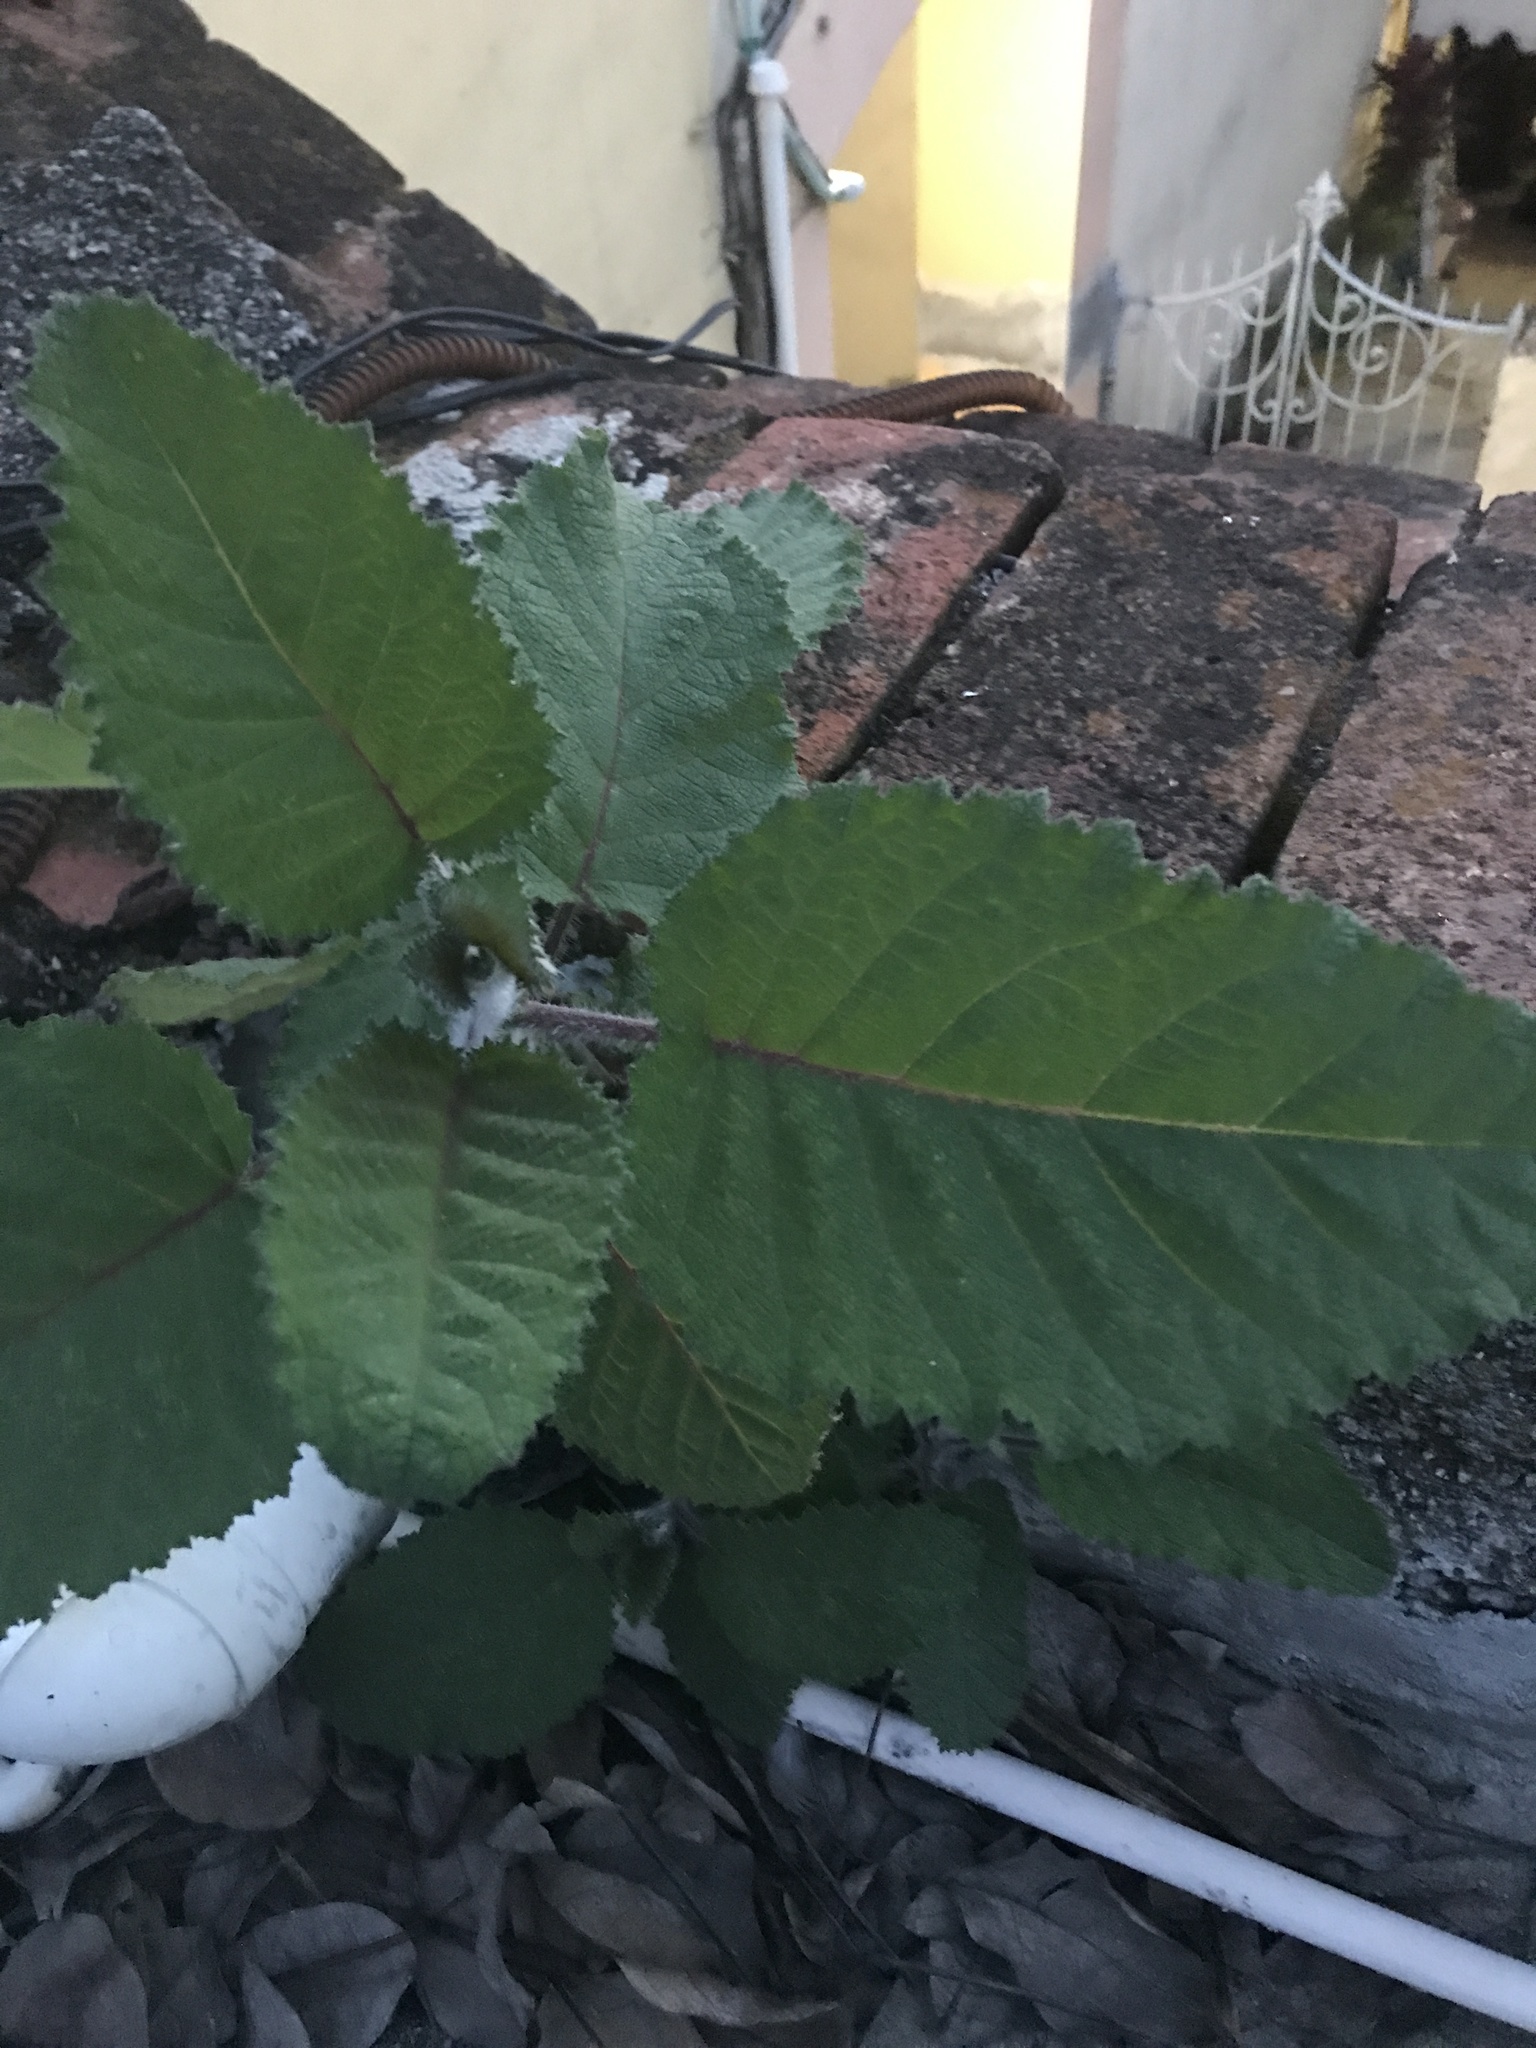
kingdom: Plantae
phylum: Tracheophyta
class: Magnoliopsida
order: Boraginales
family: Namaceae
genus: Wigandia
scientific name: Wigandia urens
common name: Caracus wigandia
